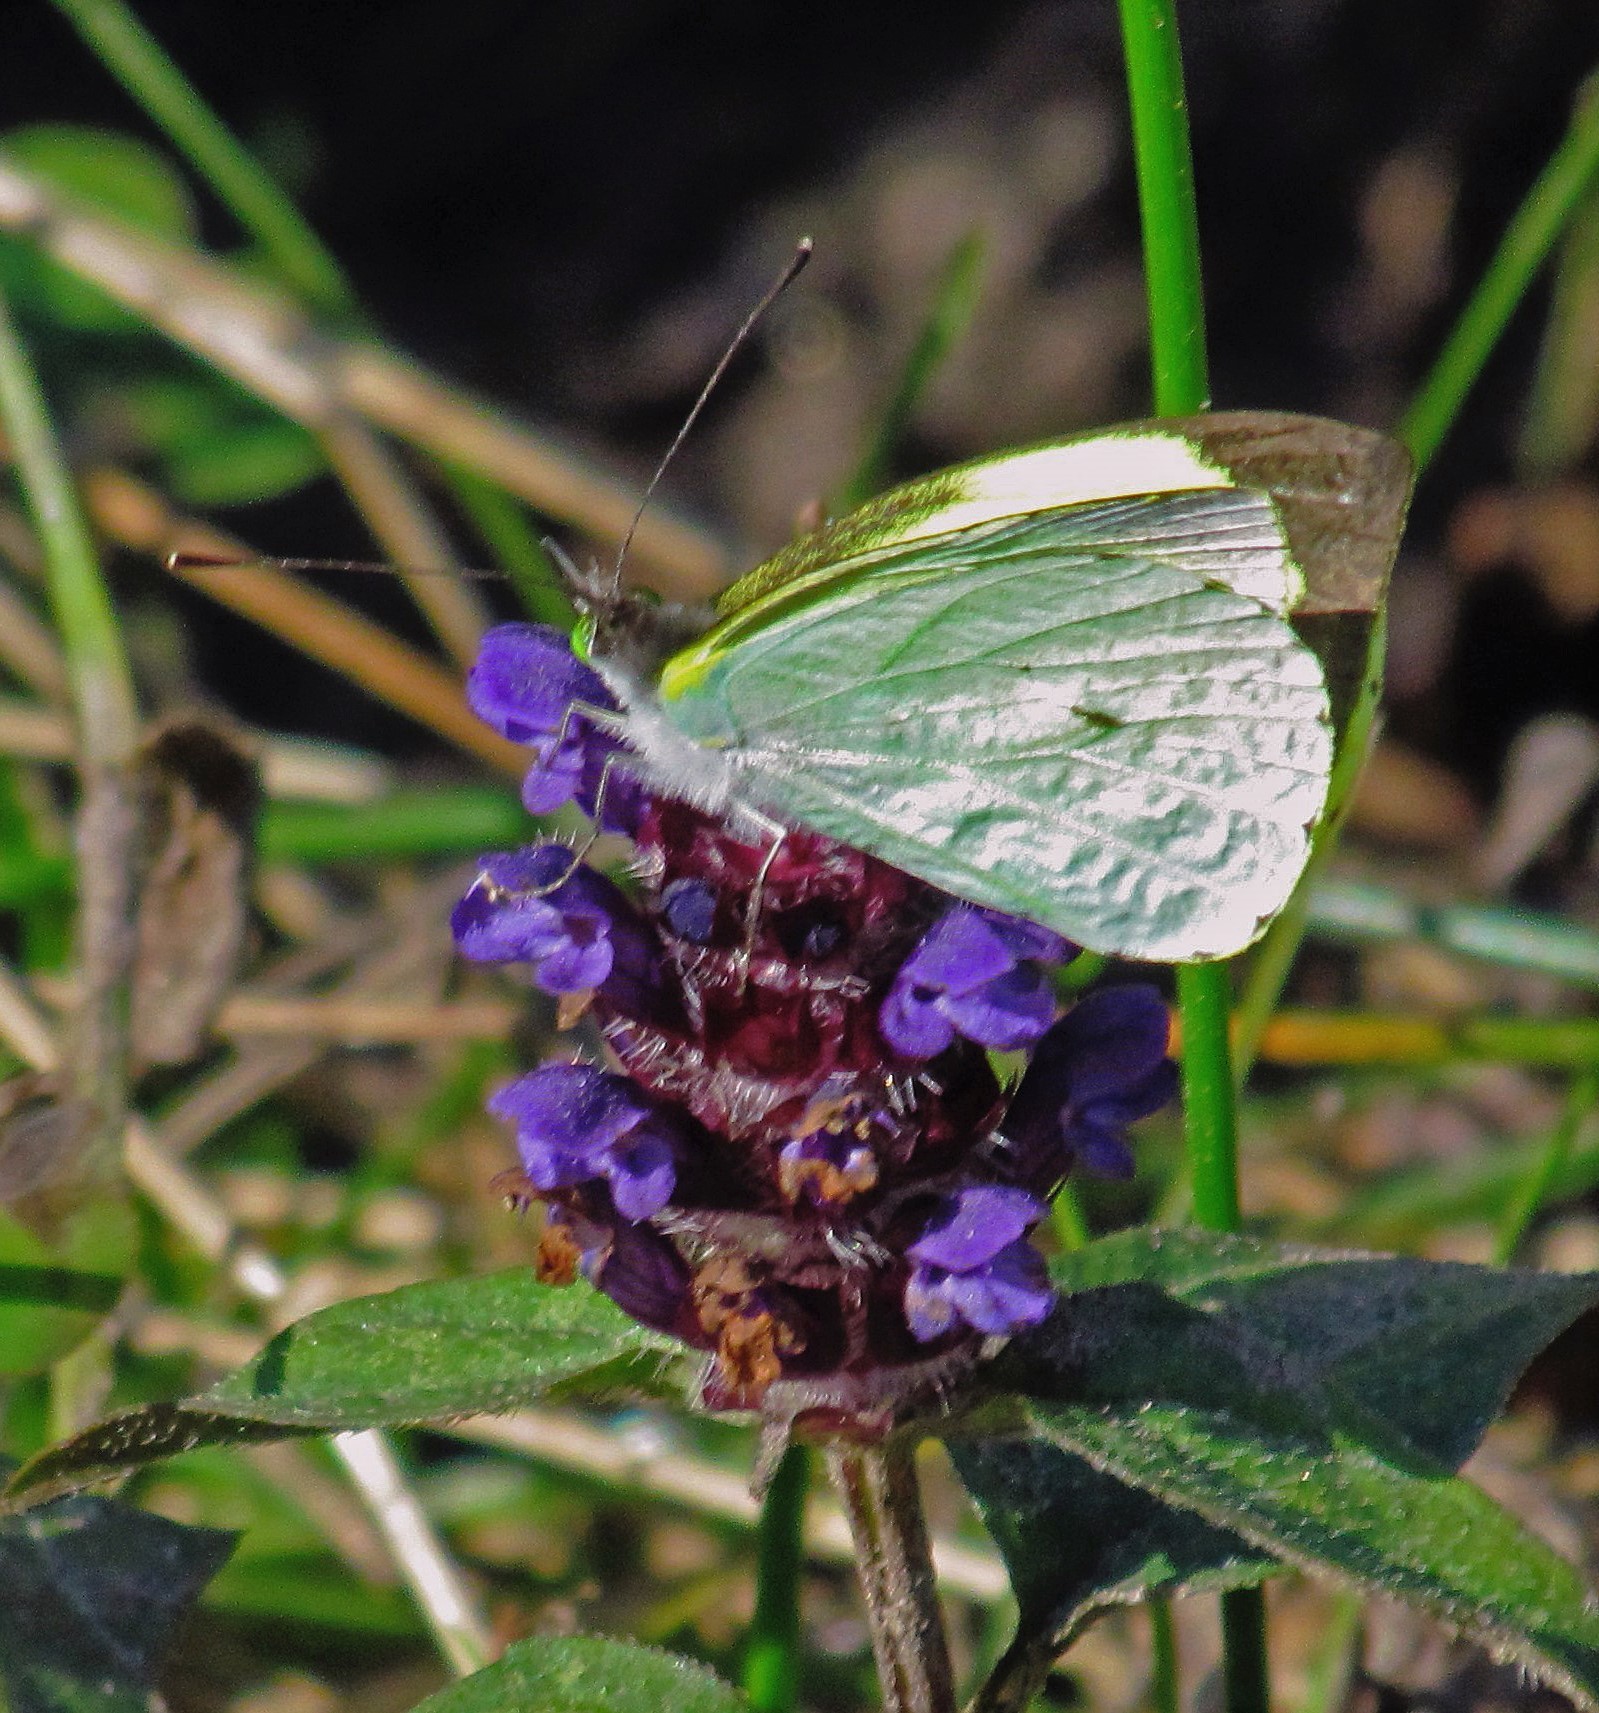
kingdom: Animalia
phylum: Arthropoda
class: Insecta
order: Lepidoptera
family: Pieridae
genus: Leptophobia
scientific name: Leptophobia diaguita
